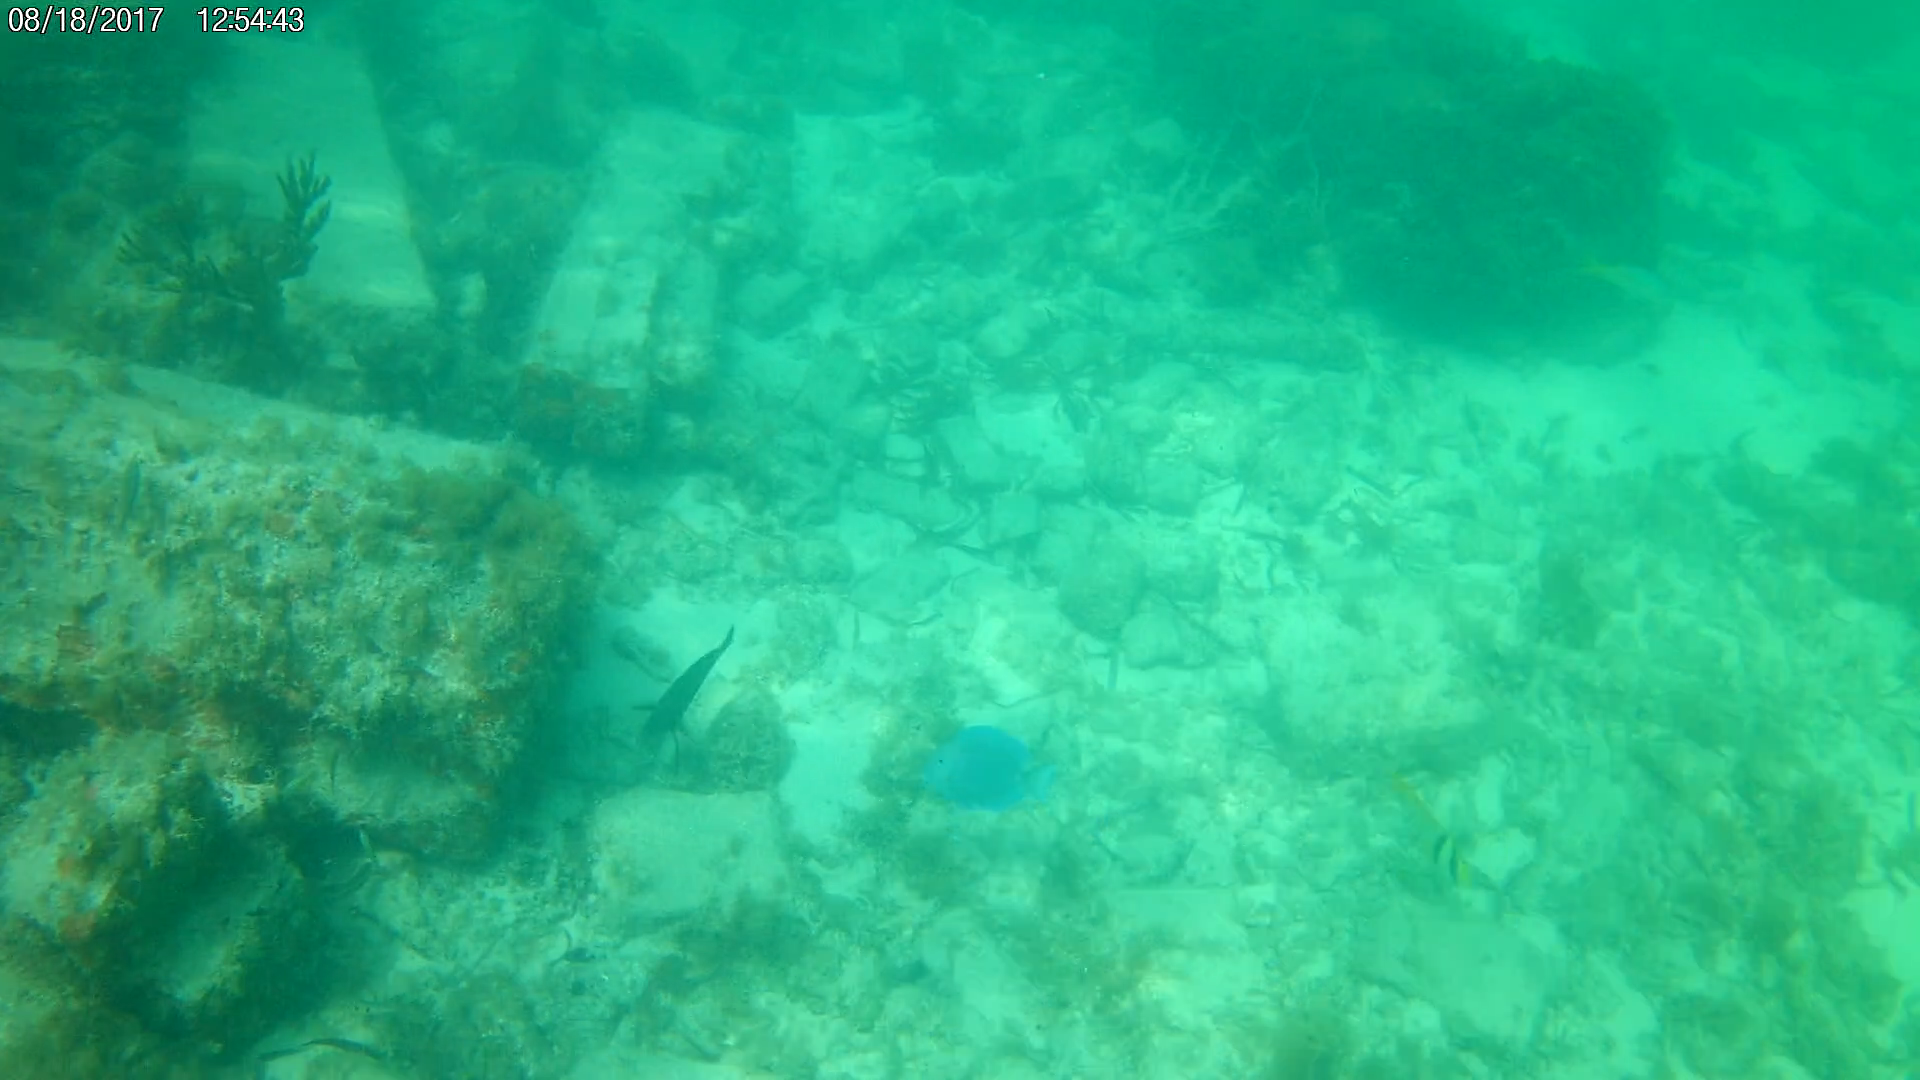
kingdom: Animalia
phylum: Chordata
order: Perciformes
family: Acanthuridae
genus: Acanthurus
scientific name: Acanthurus coeruleus
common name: Blue tang
